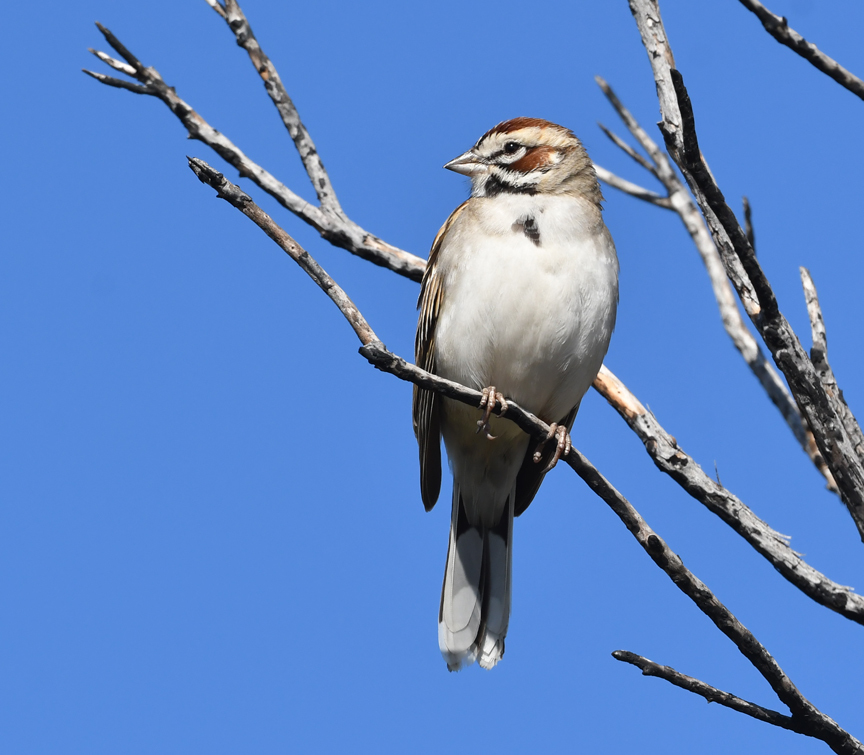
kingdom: Animalia
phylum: Chordata
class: Aves
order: Passeriformes
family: Passerellidae
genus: Chondestes
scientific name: Chondestes grammacus
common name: Lark sparrow
